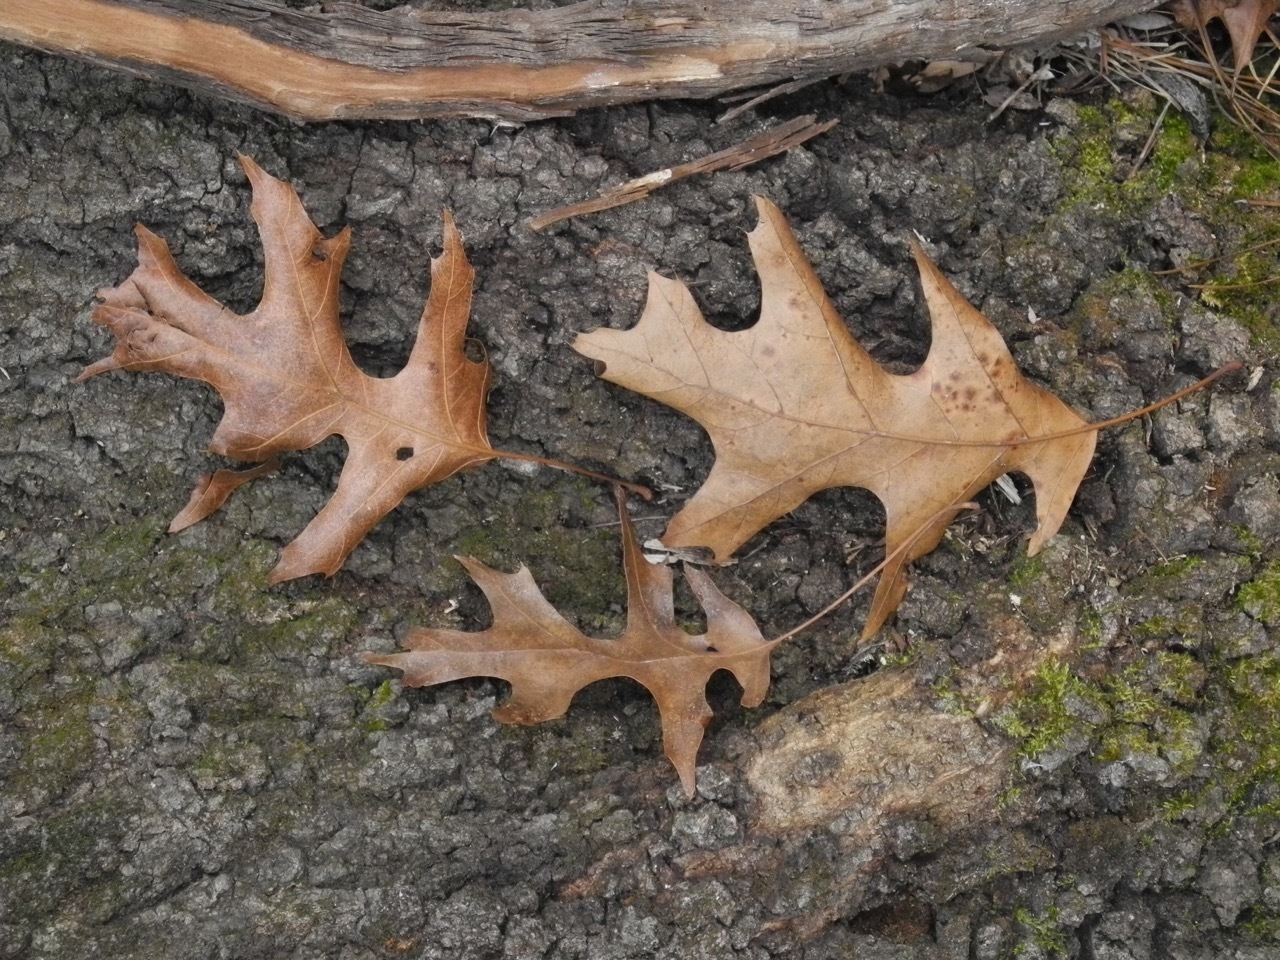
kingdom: Plantae
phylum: Tracheophyta
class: Magnoliopsida
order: Fagales
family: Fagaceae
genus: Quercus
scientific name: Quercus coccinea
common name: Scarlet oak
